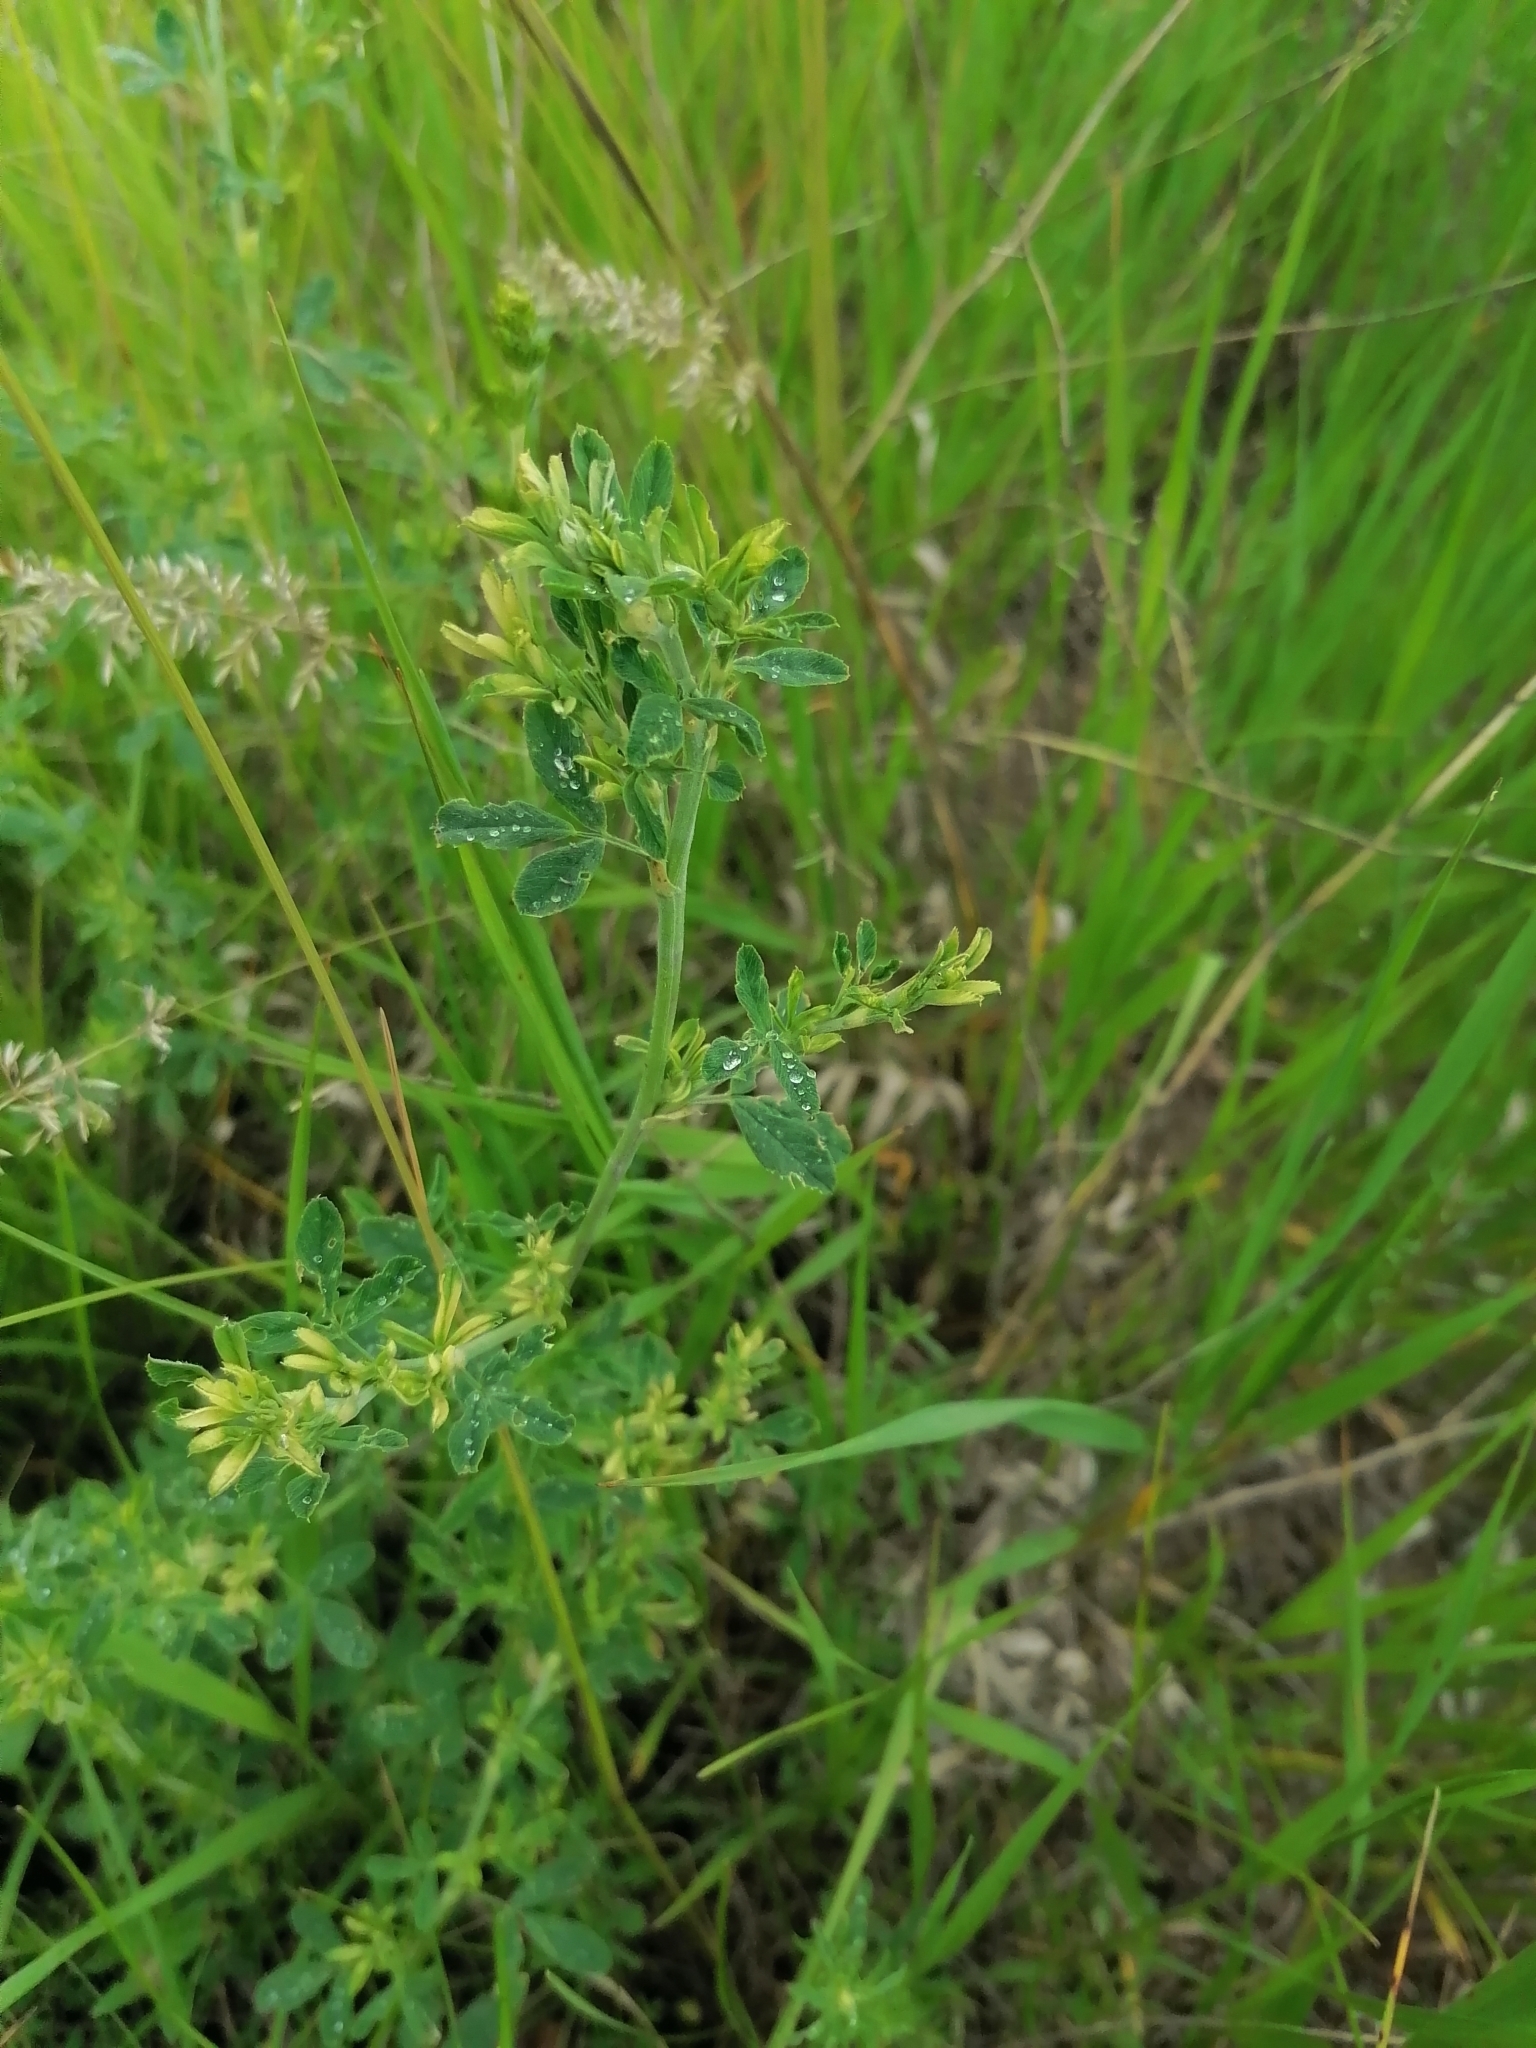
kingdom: Plantae
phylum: Tracheophyta
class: Magnoliopsida
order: Fabales
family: Fabaceae
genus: Medicago
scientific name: Medicago falcata
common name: Sickle medick
